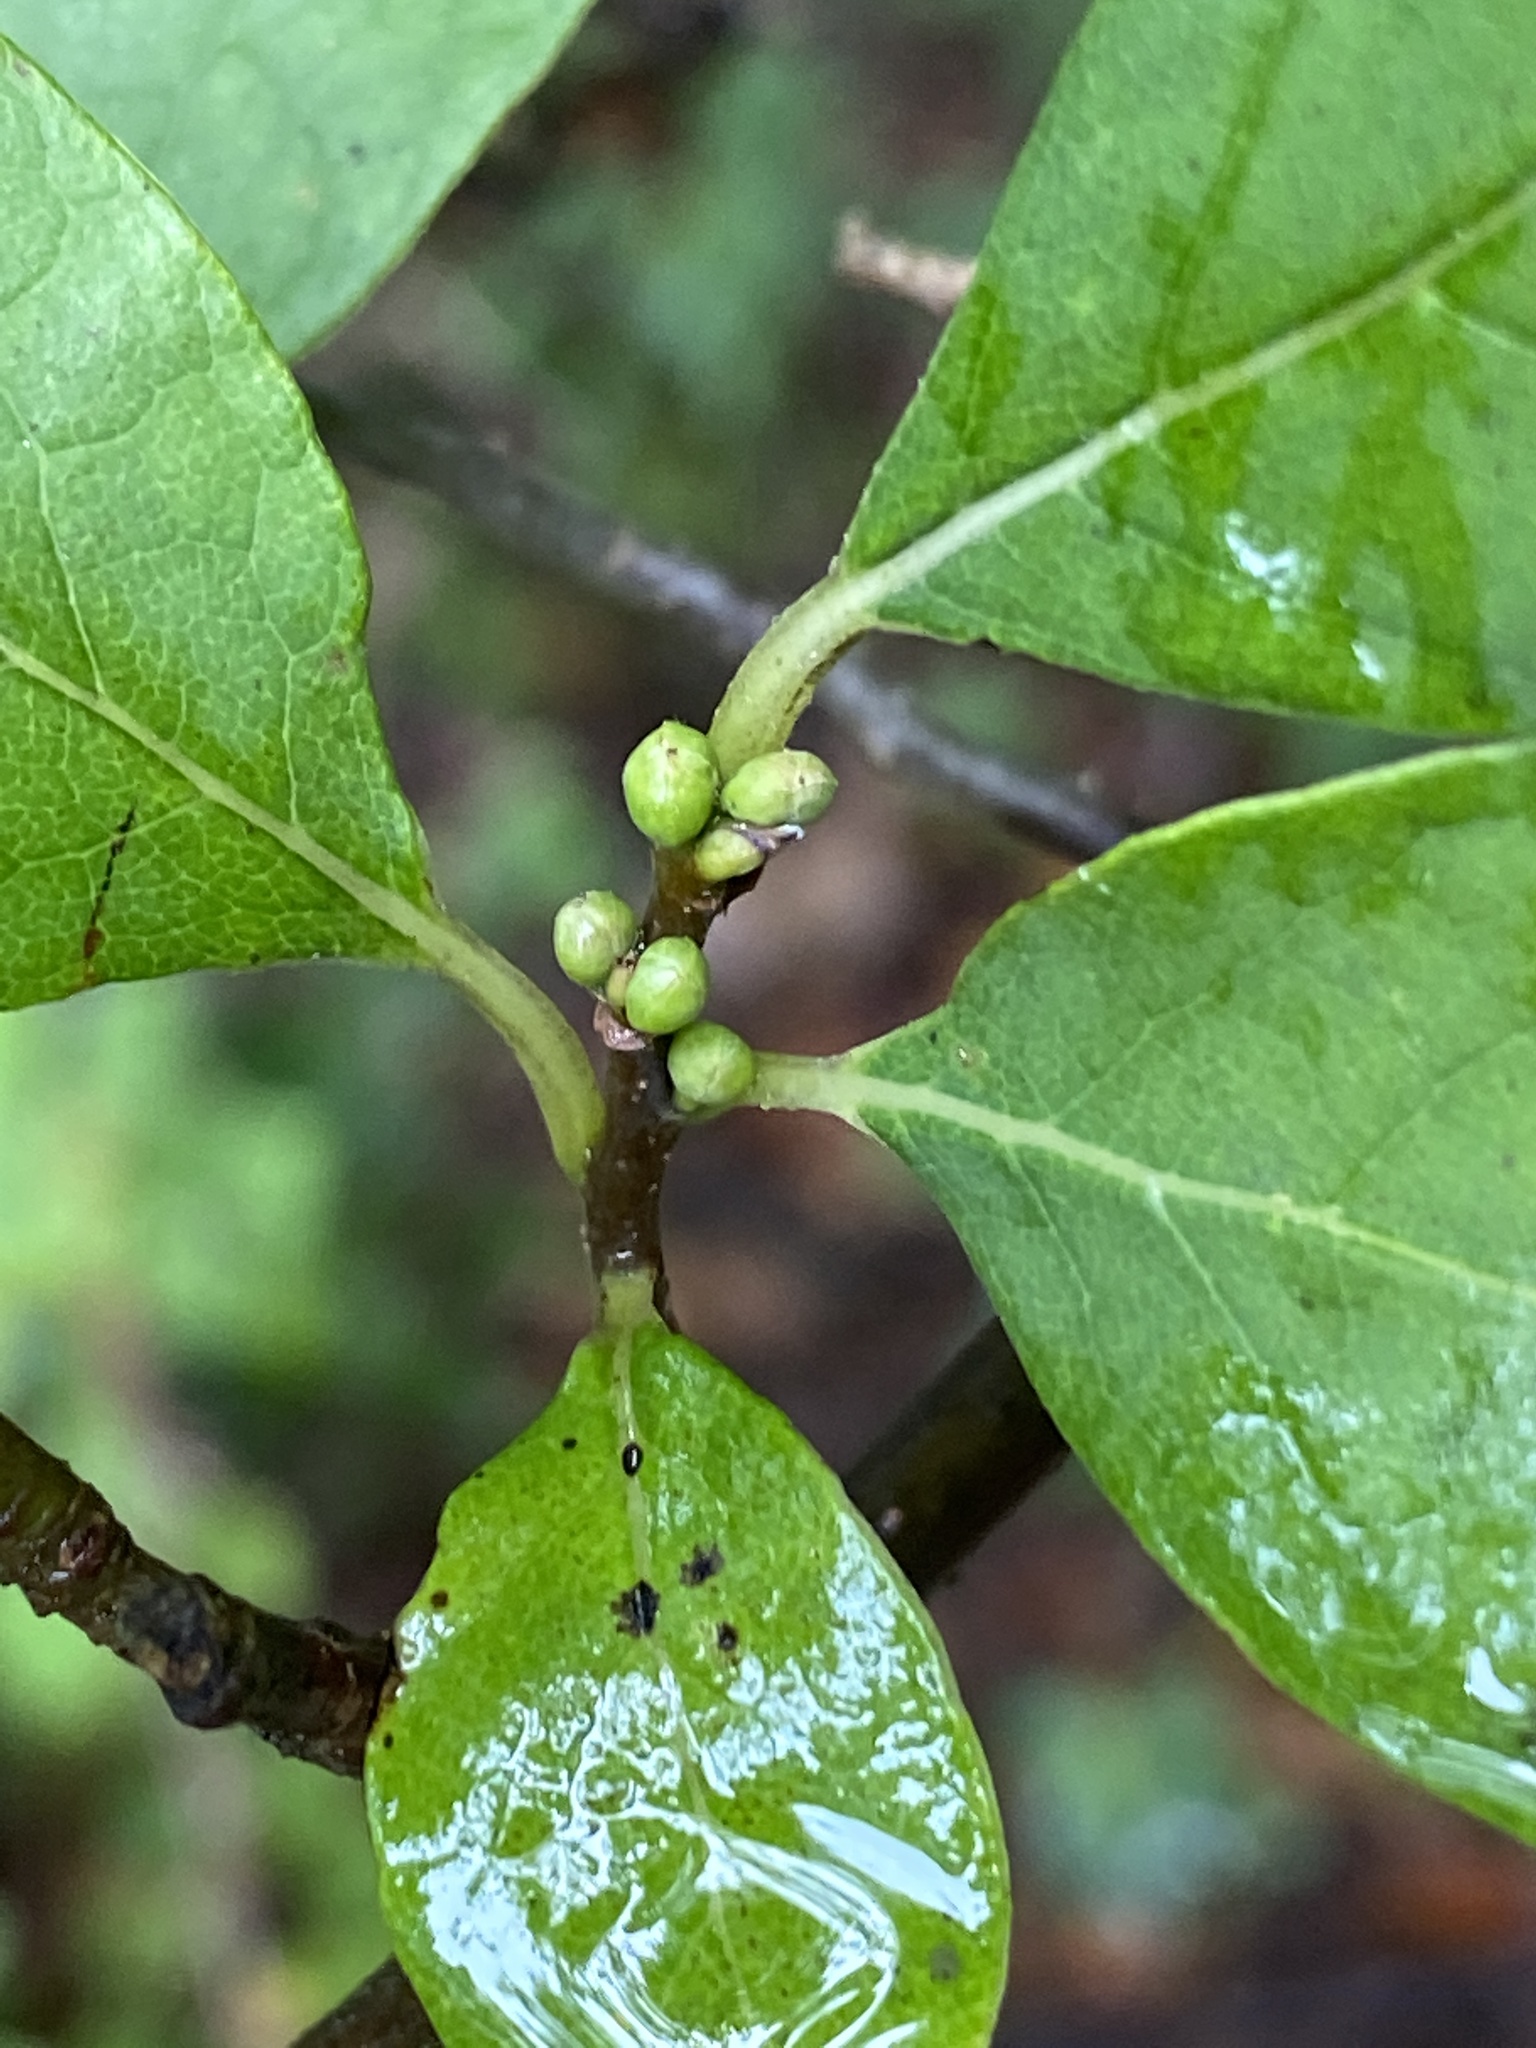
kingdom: Plantae
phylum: Tracheophyta
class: Magnoliopsida
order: Laurales
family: Lauraceae
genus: Lindera
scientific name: Lindera benzoin
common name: Spicebush
